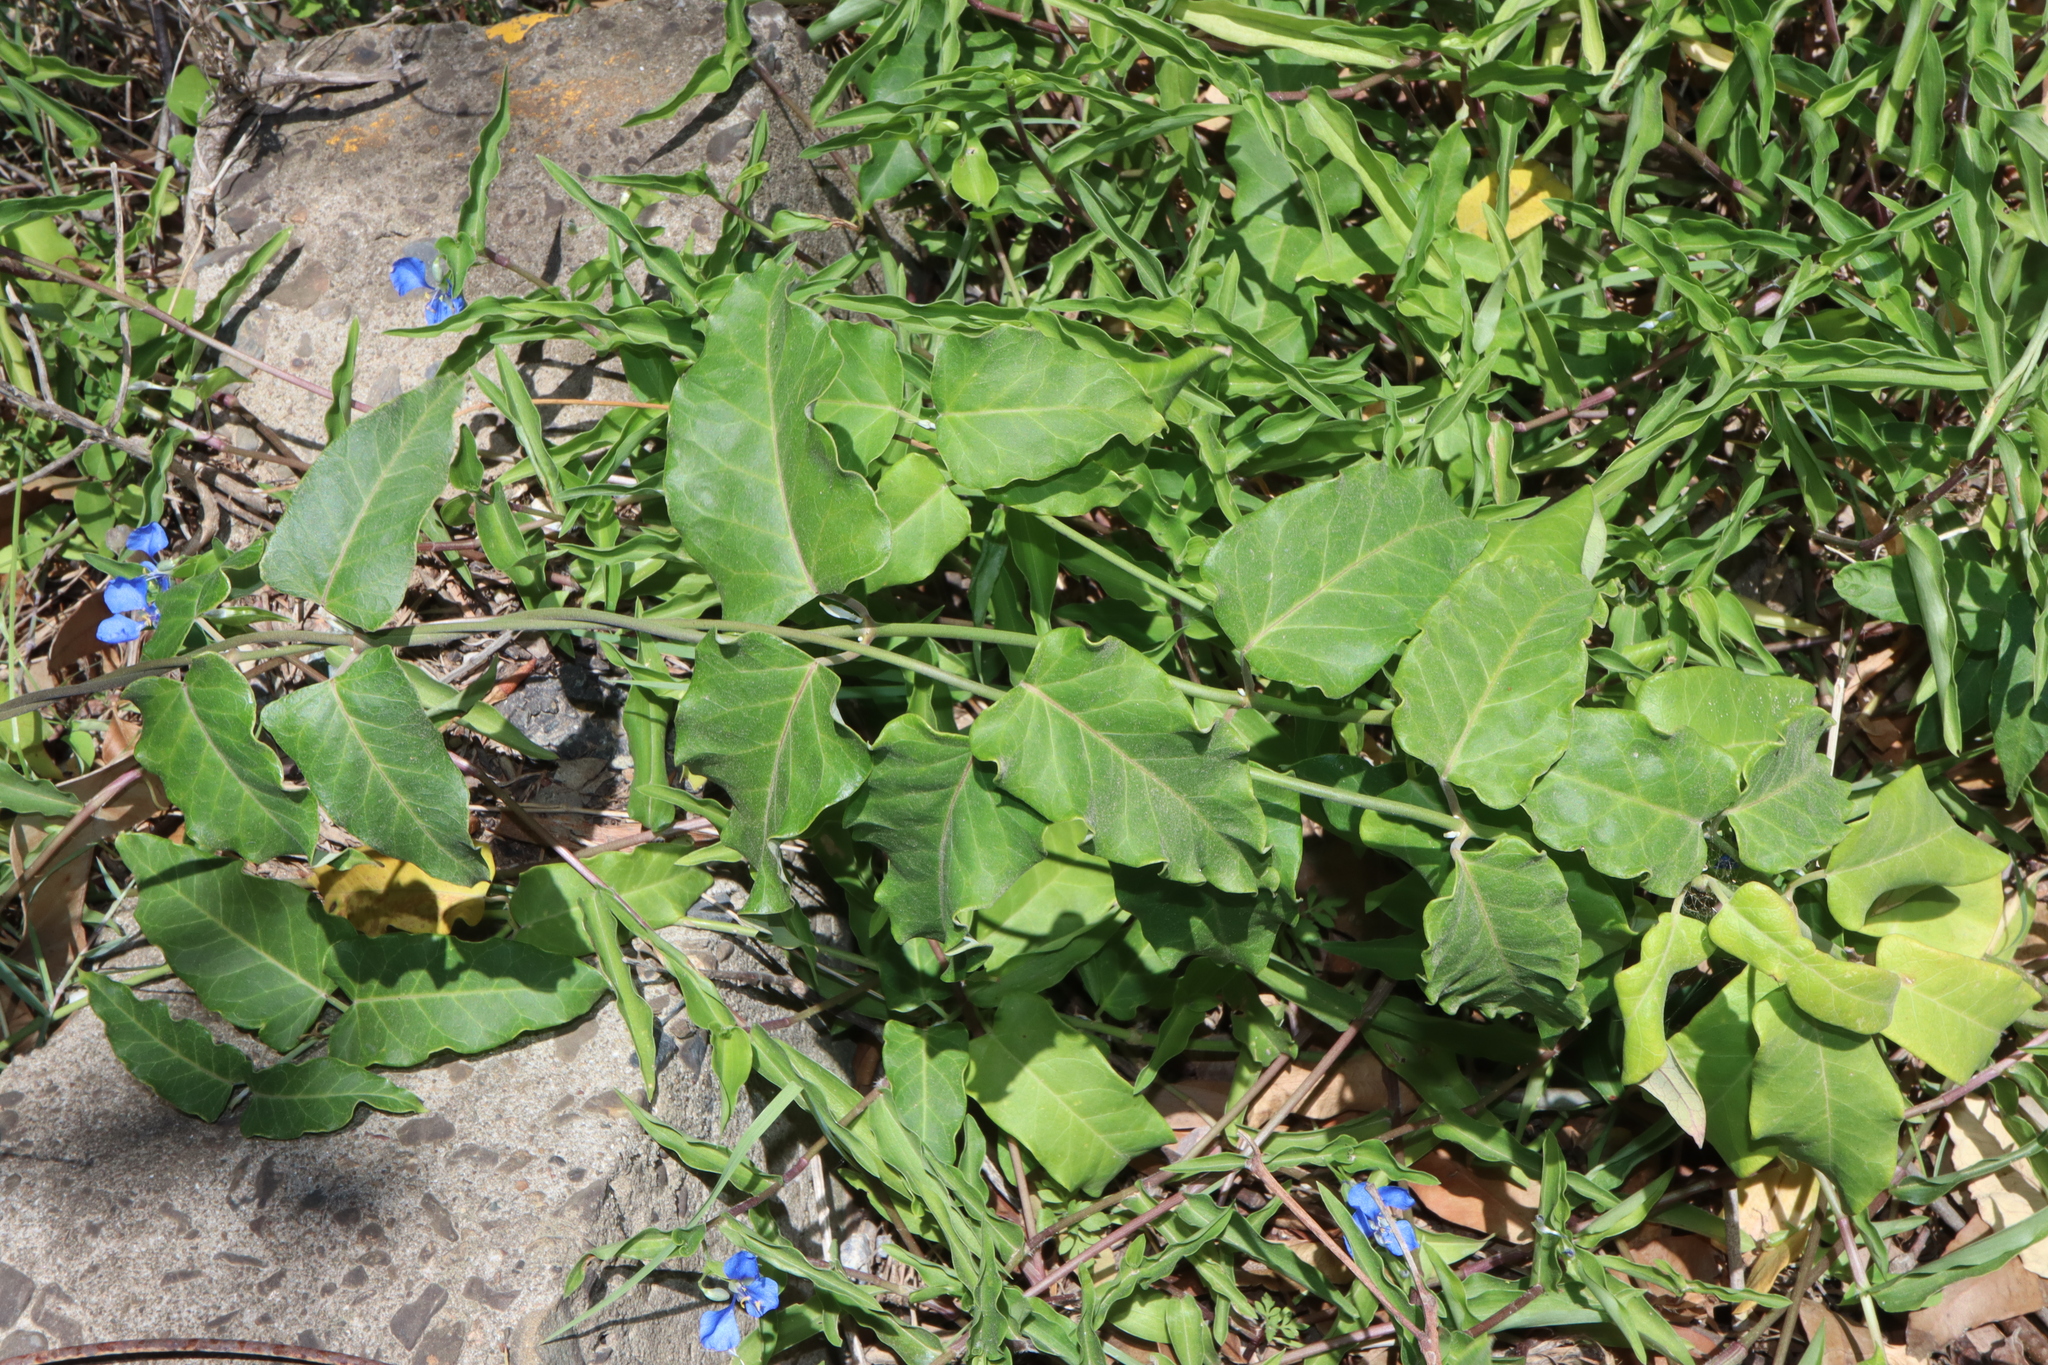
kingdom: Plantae
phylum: Tracheophyta
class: Magnoliopsida
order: Gentianales
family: Apocynaceae
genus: Araujia
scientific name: Araujia sericifera
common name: White bladderflower
